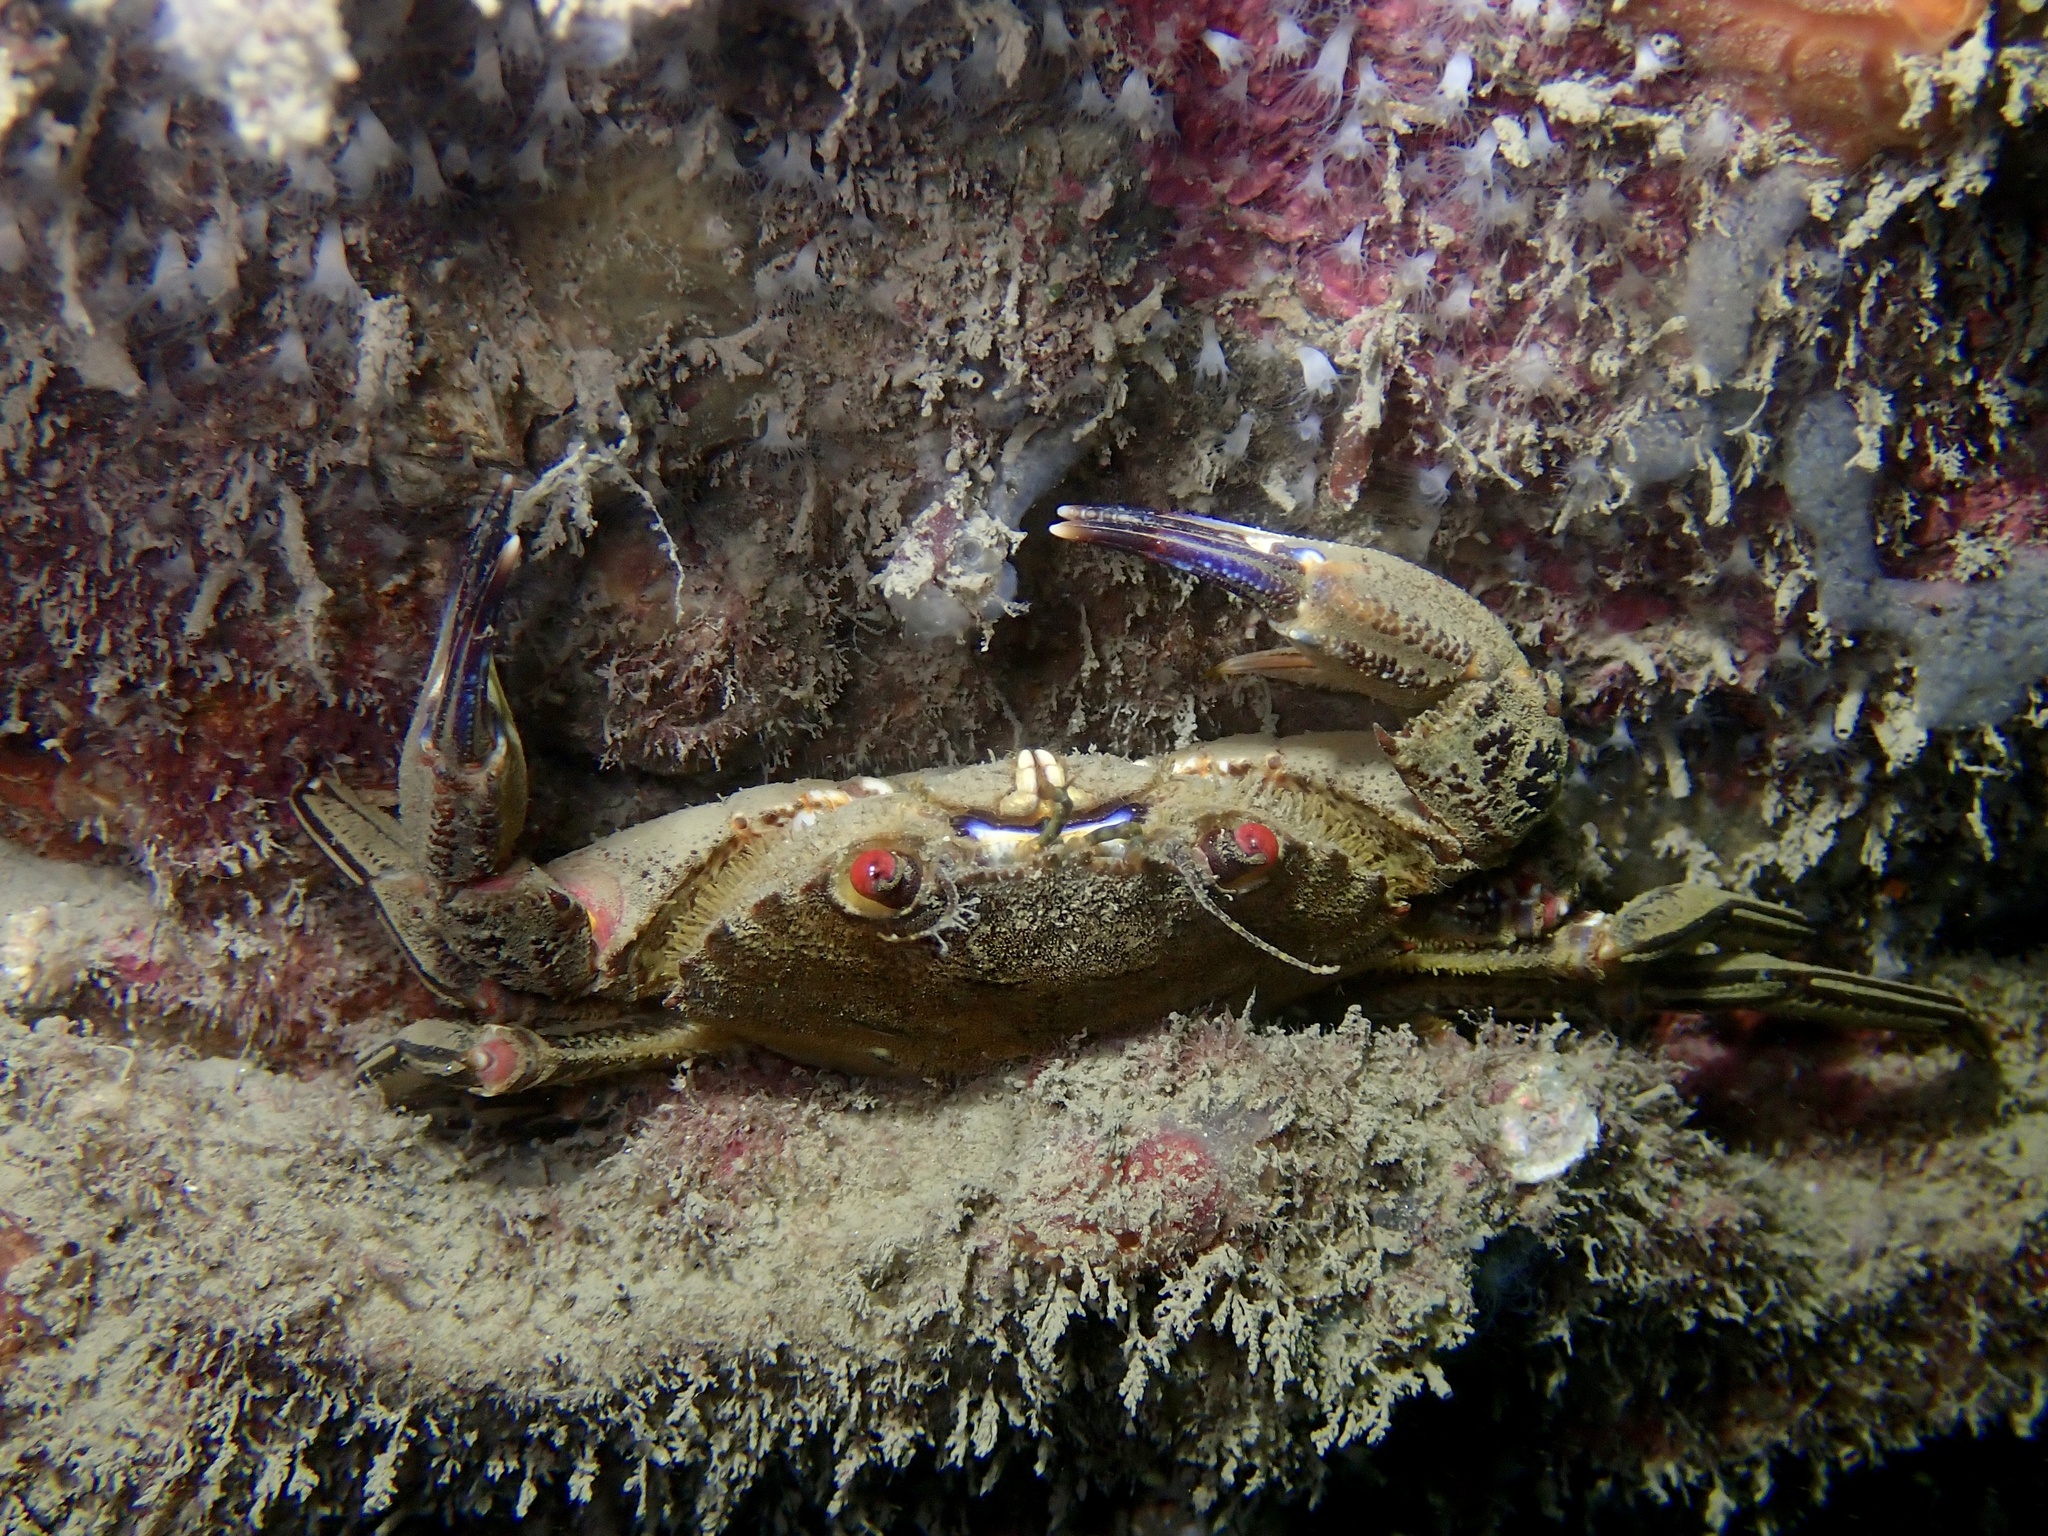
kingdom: Animalia
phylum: Arthropoda
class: Malacostraca
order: Decapoda
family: Polybiidae
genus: Necora
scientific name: Necora puber
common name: Velvet swimming crab
